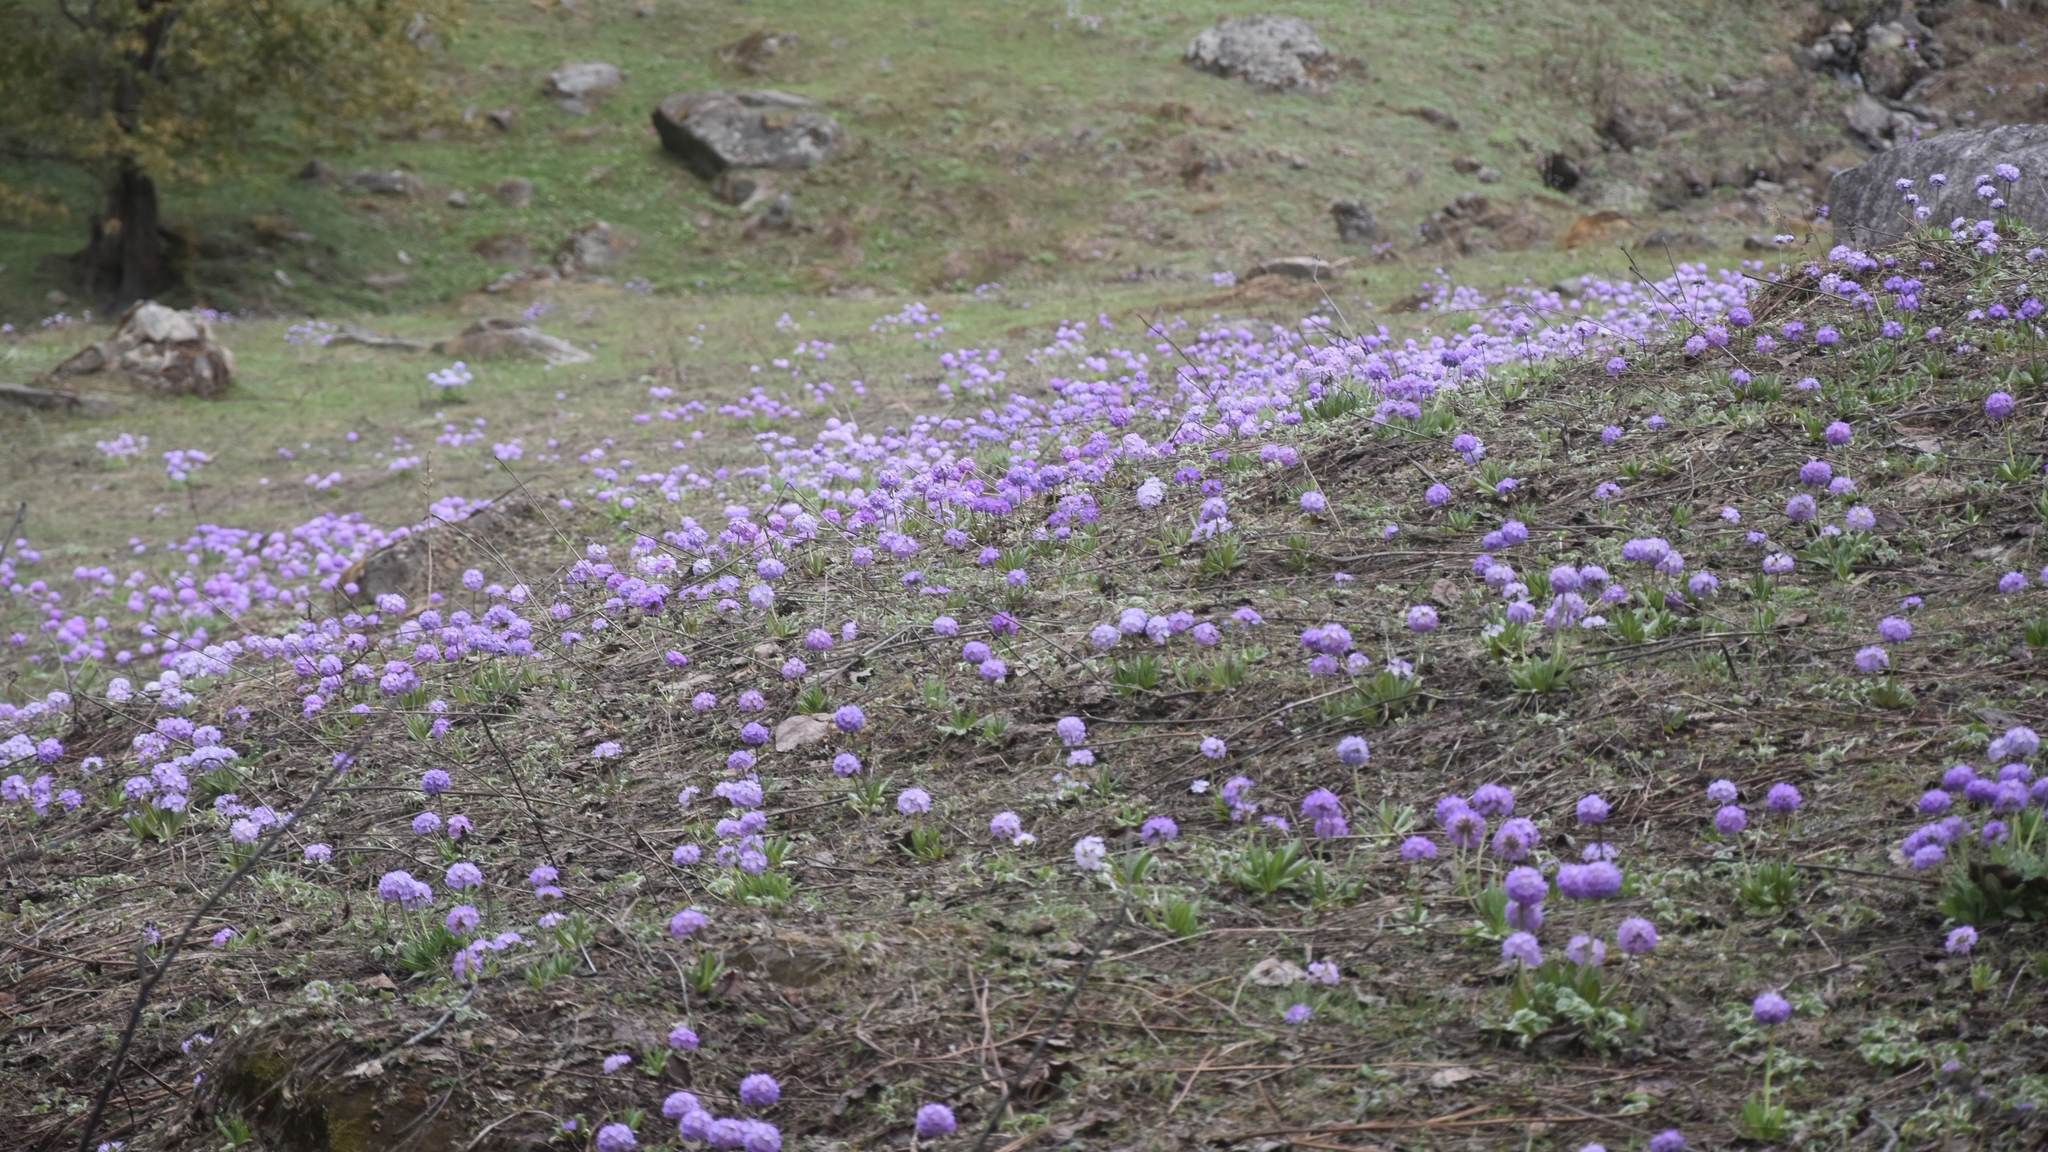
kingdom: Plantae
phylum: Tracheophyta
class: Magnoliopsida
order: Ericales
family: Primulaceae
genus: Primula
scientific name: Primula denticulata
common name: Drumstick primula
